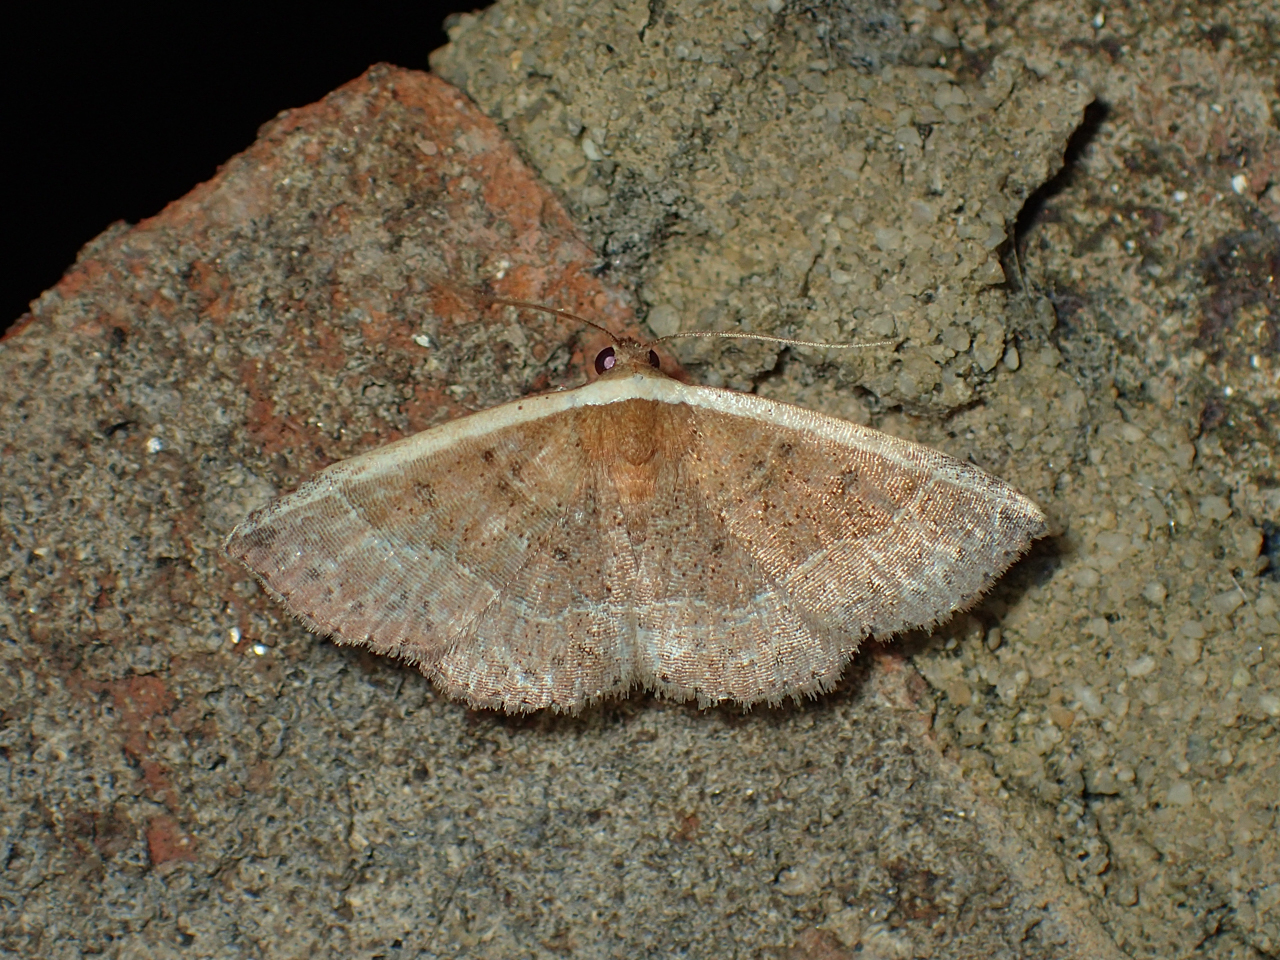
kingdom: Animalia
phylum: Arthropoda
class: Insecta
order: Lepidoptera
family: Noctuidae
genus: Ozarba
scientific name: Ozarba albocostaliata
